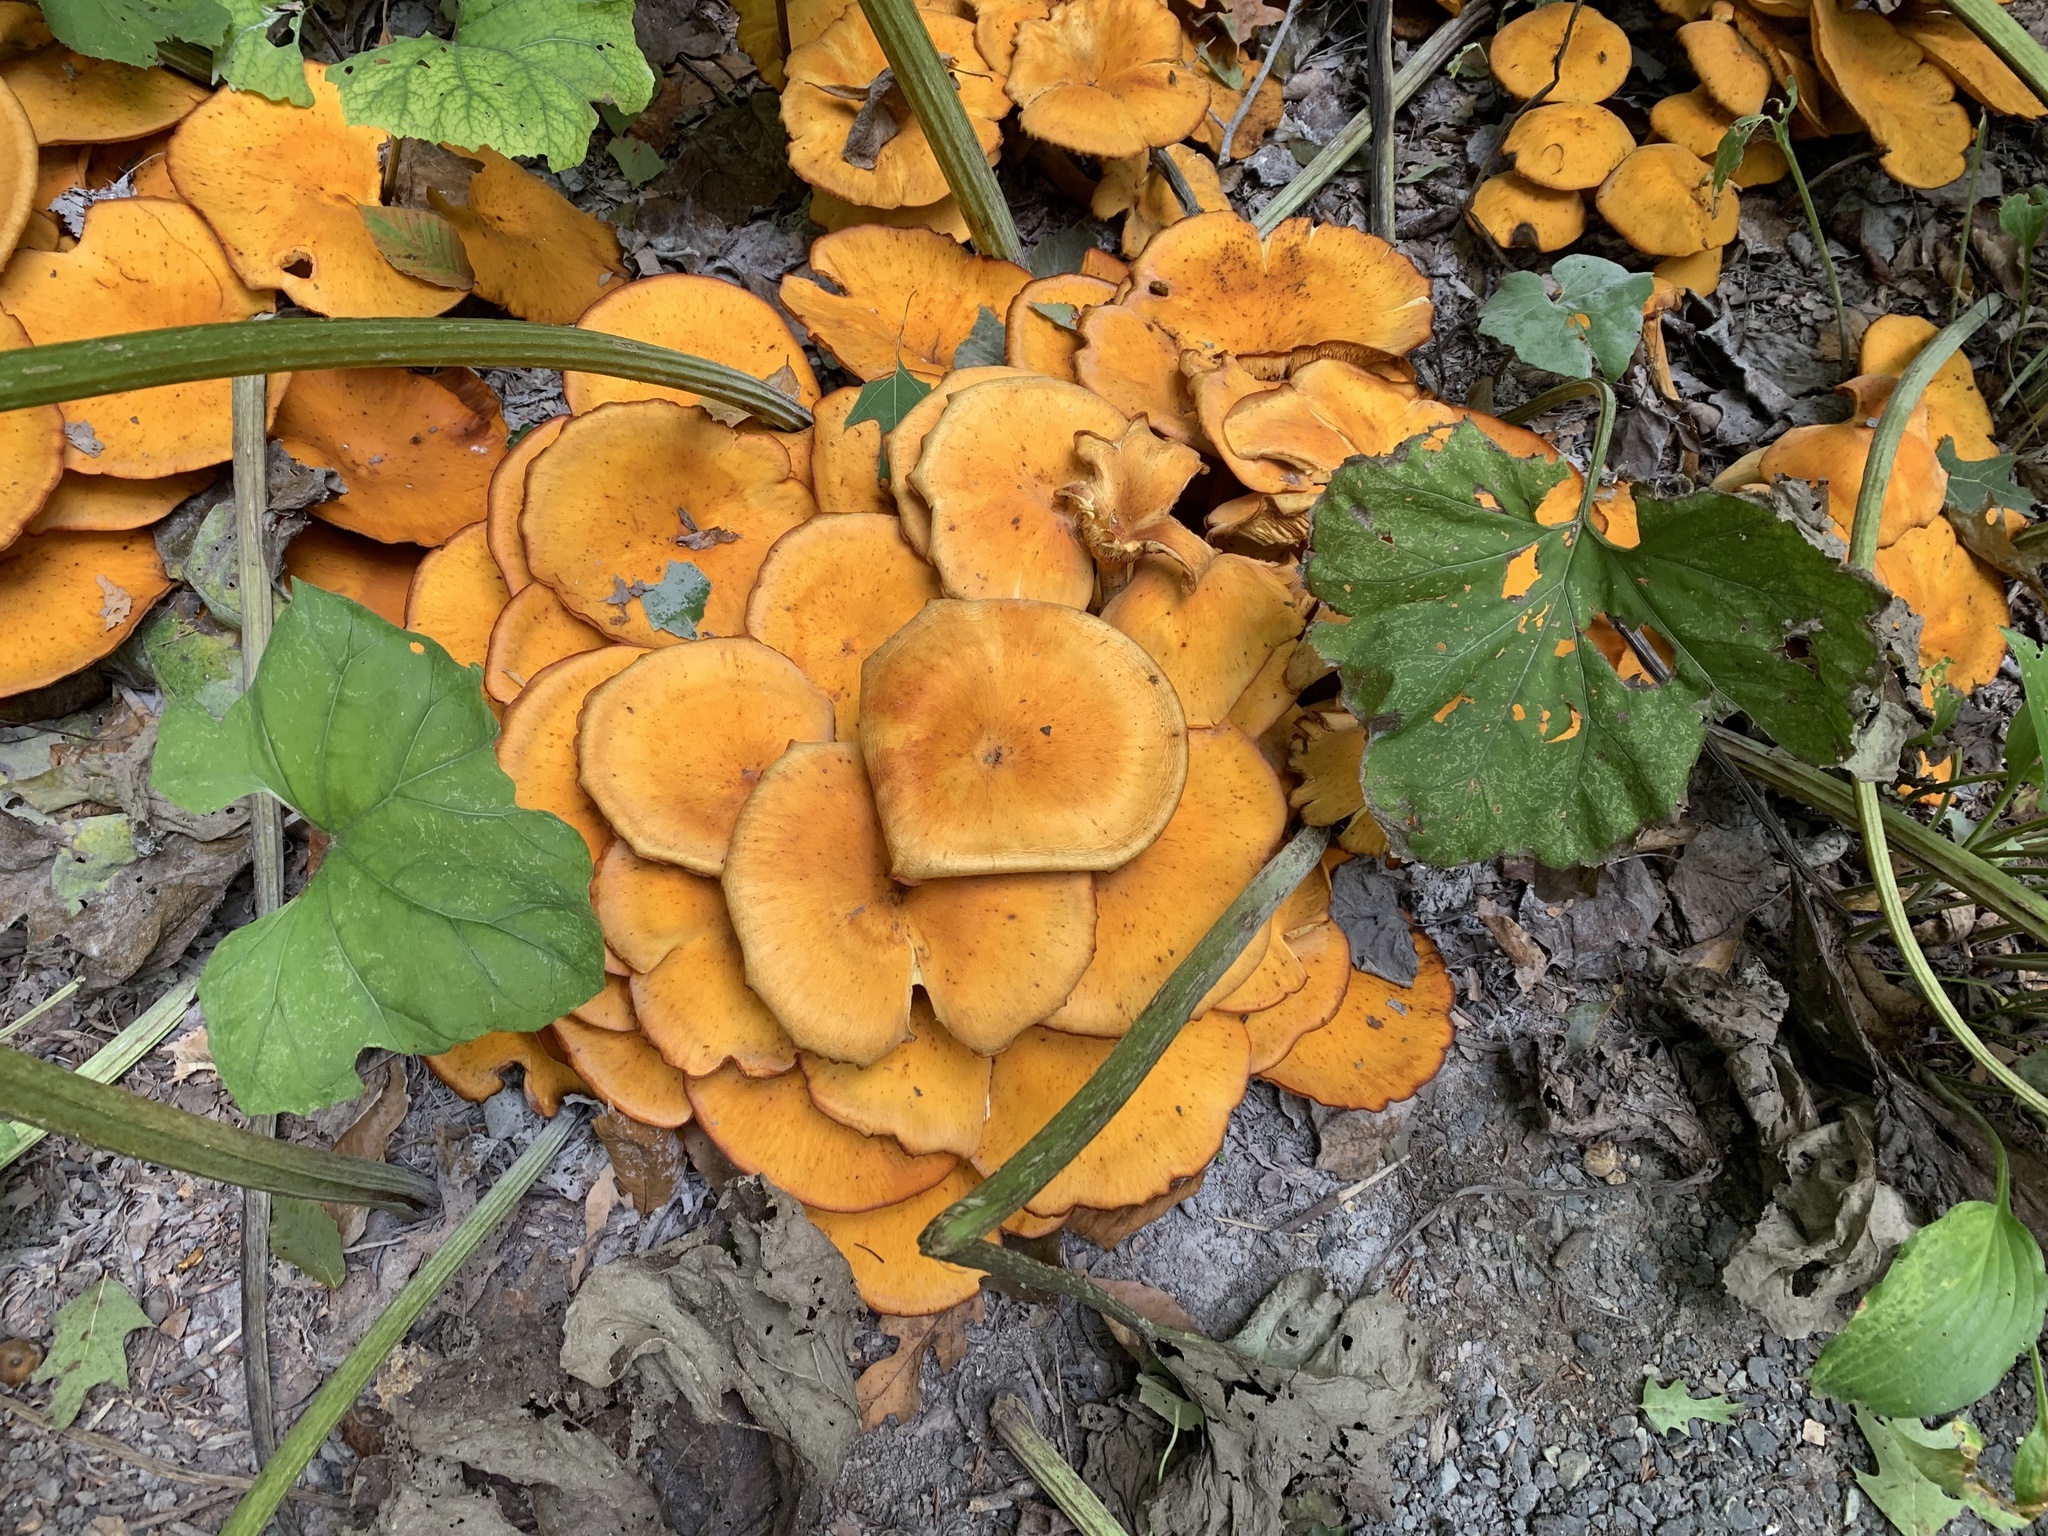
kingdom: Fungi
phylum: Basidiomycota
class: Agaricomycetes
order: Agaricales
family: Omphalotaceae
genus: Omphalotus
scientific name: Omphalotus illudens
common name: Jack o lantern
